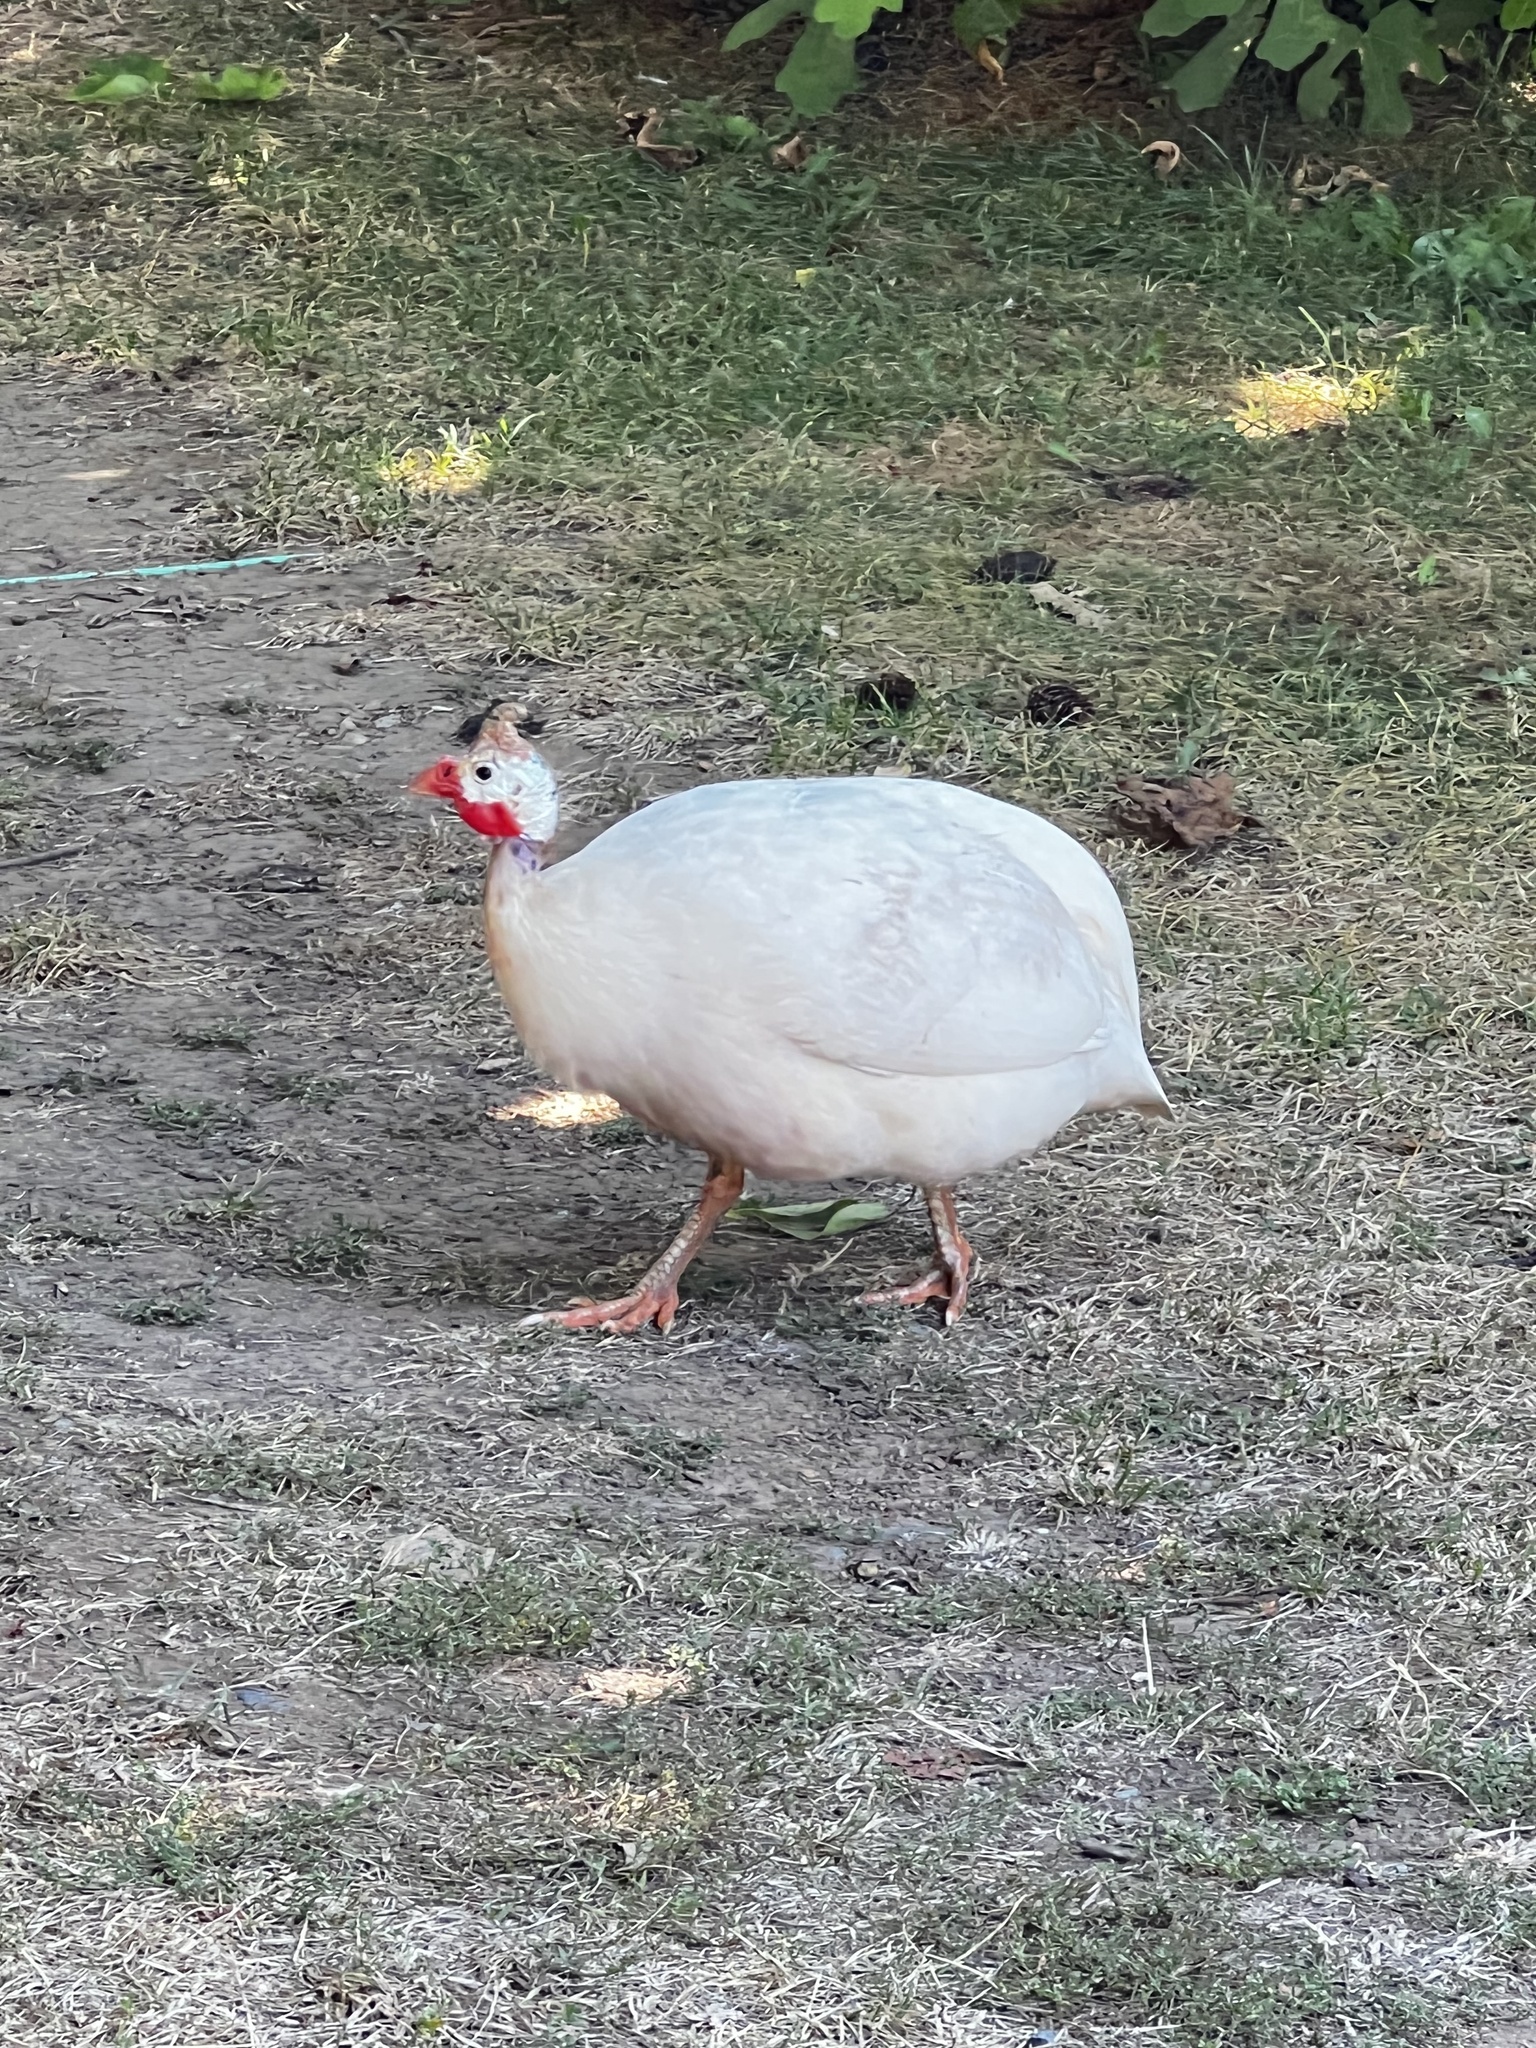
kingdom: Animalia
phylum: Chordata
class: Aves
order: Galliformes
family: Numididae
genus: Numida
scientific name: Numida meleagris
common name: Helmeted guineafowl
